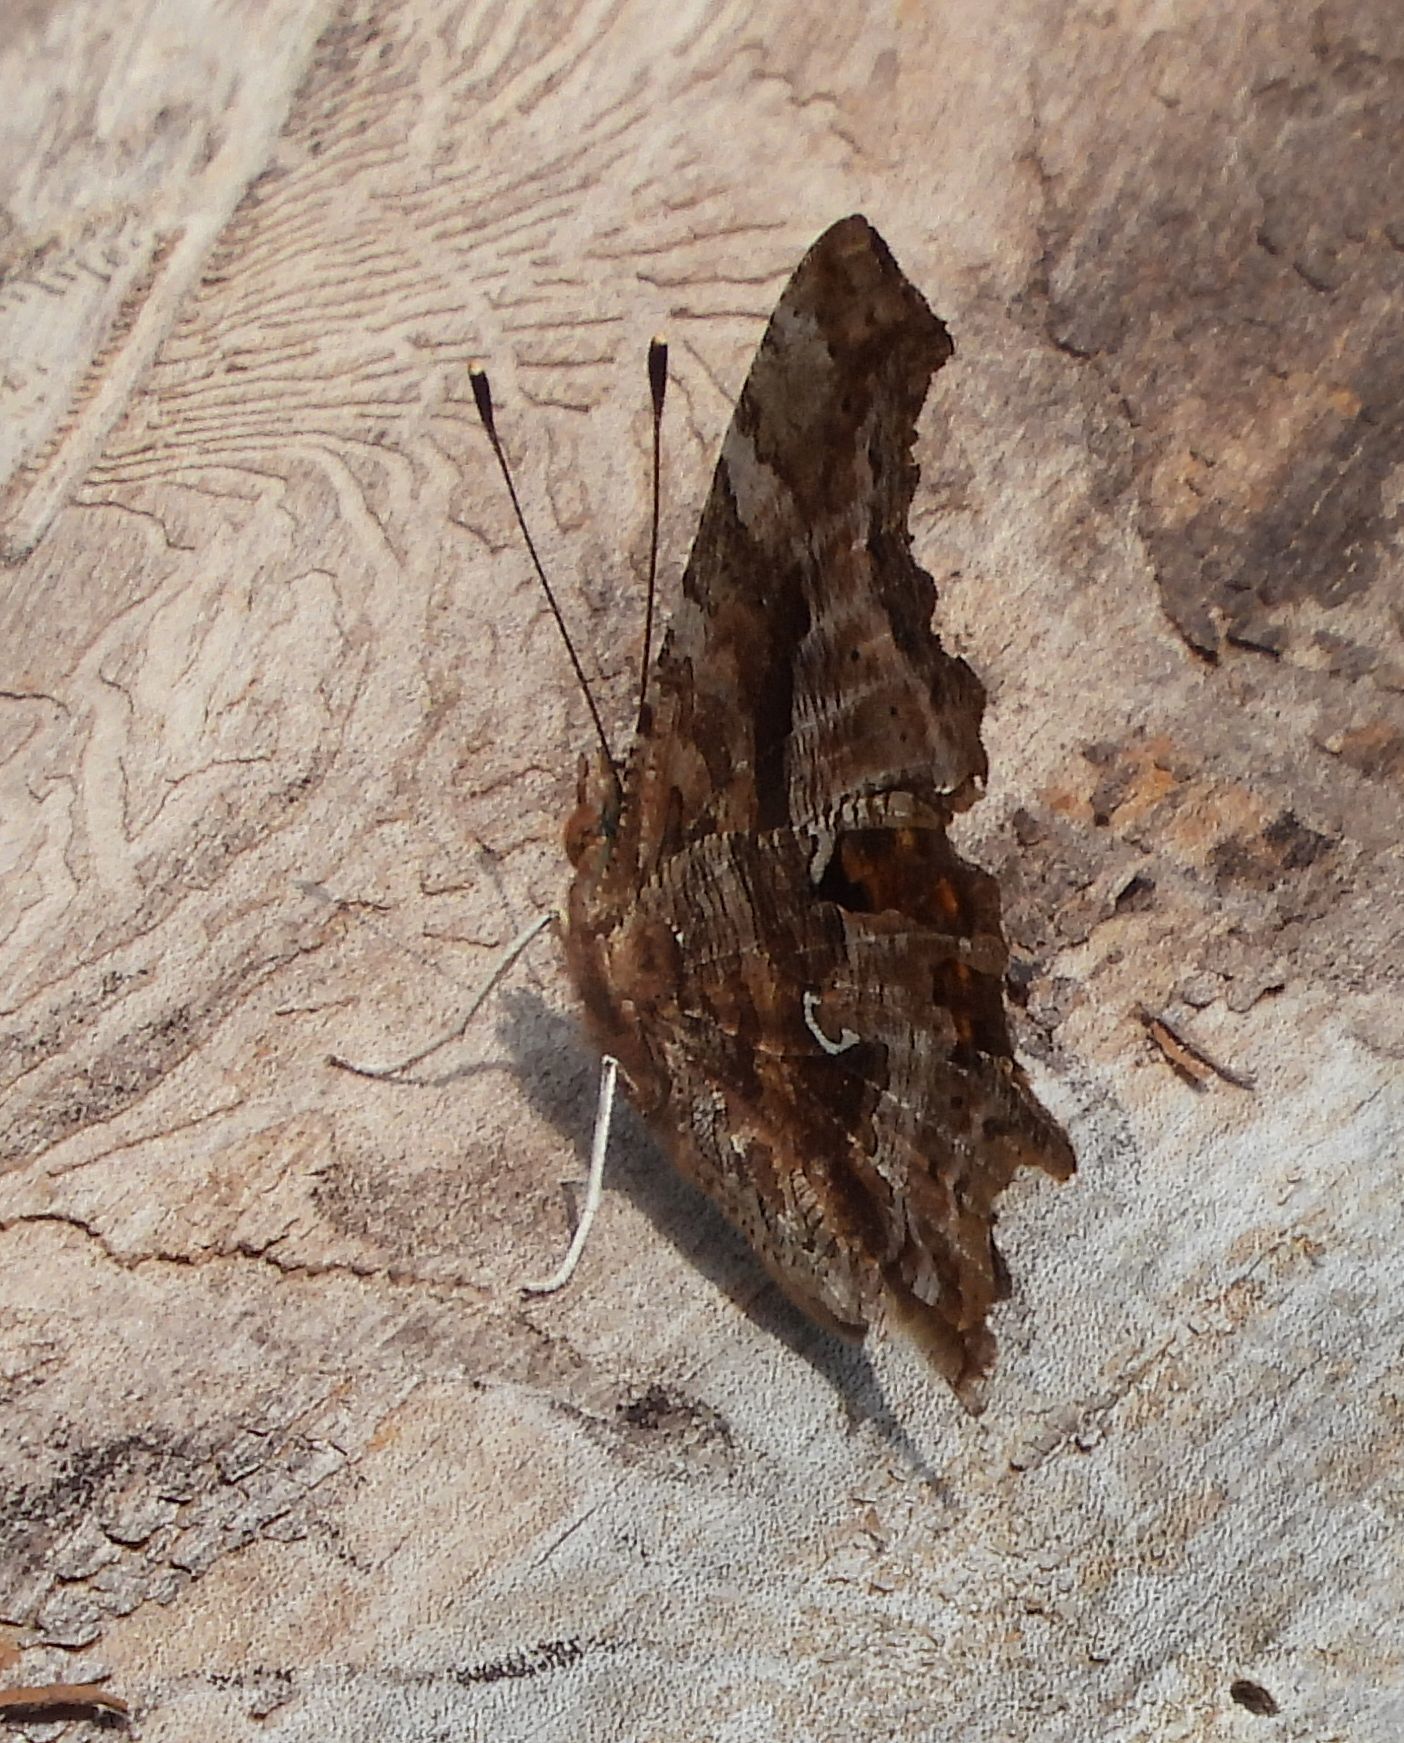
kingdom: Animalia
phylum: Arthropoda
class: Insecta
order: Lepidoptera
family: Nymphalidae
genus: Polygonia
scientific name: Polygonia comma
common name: Eastern comma
